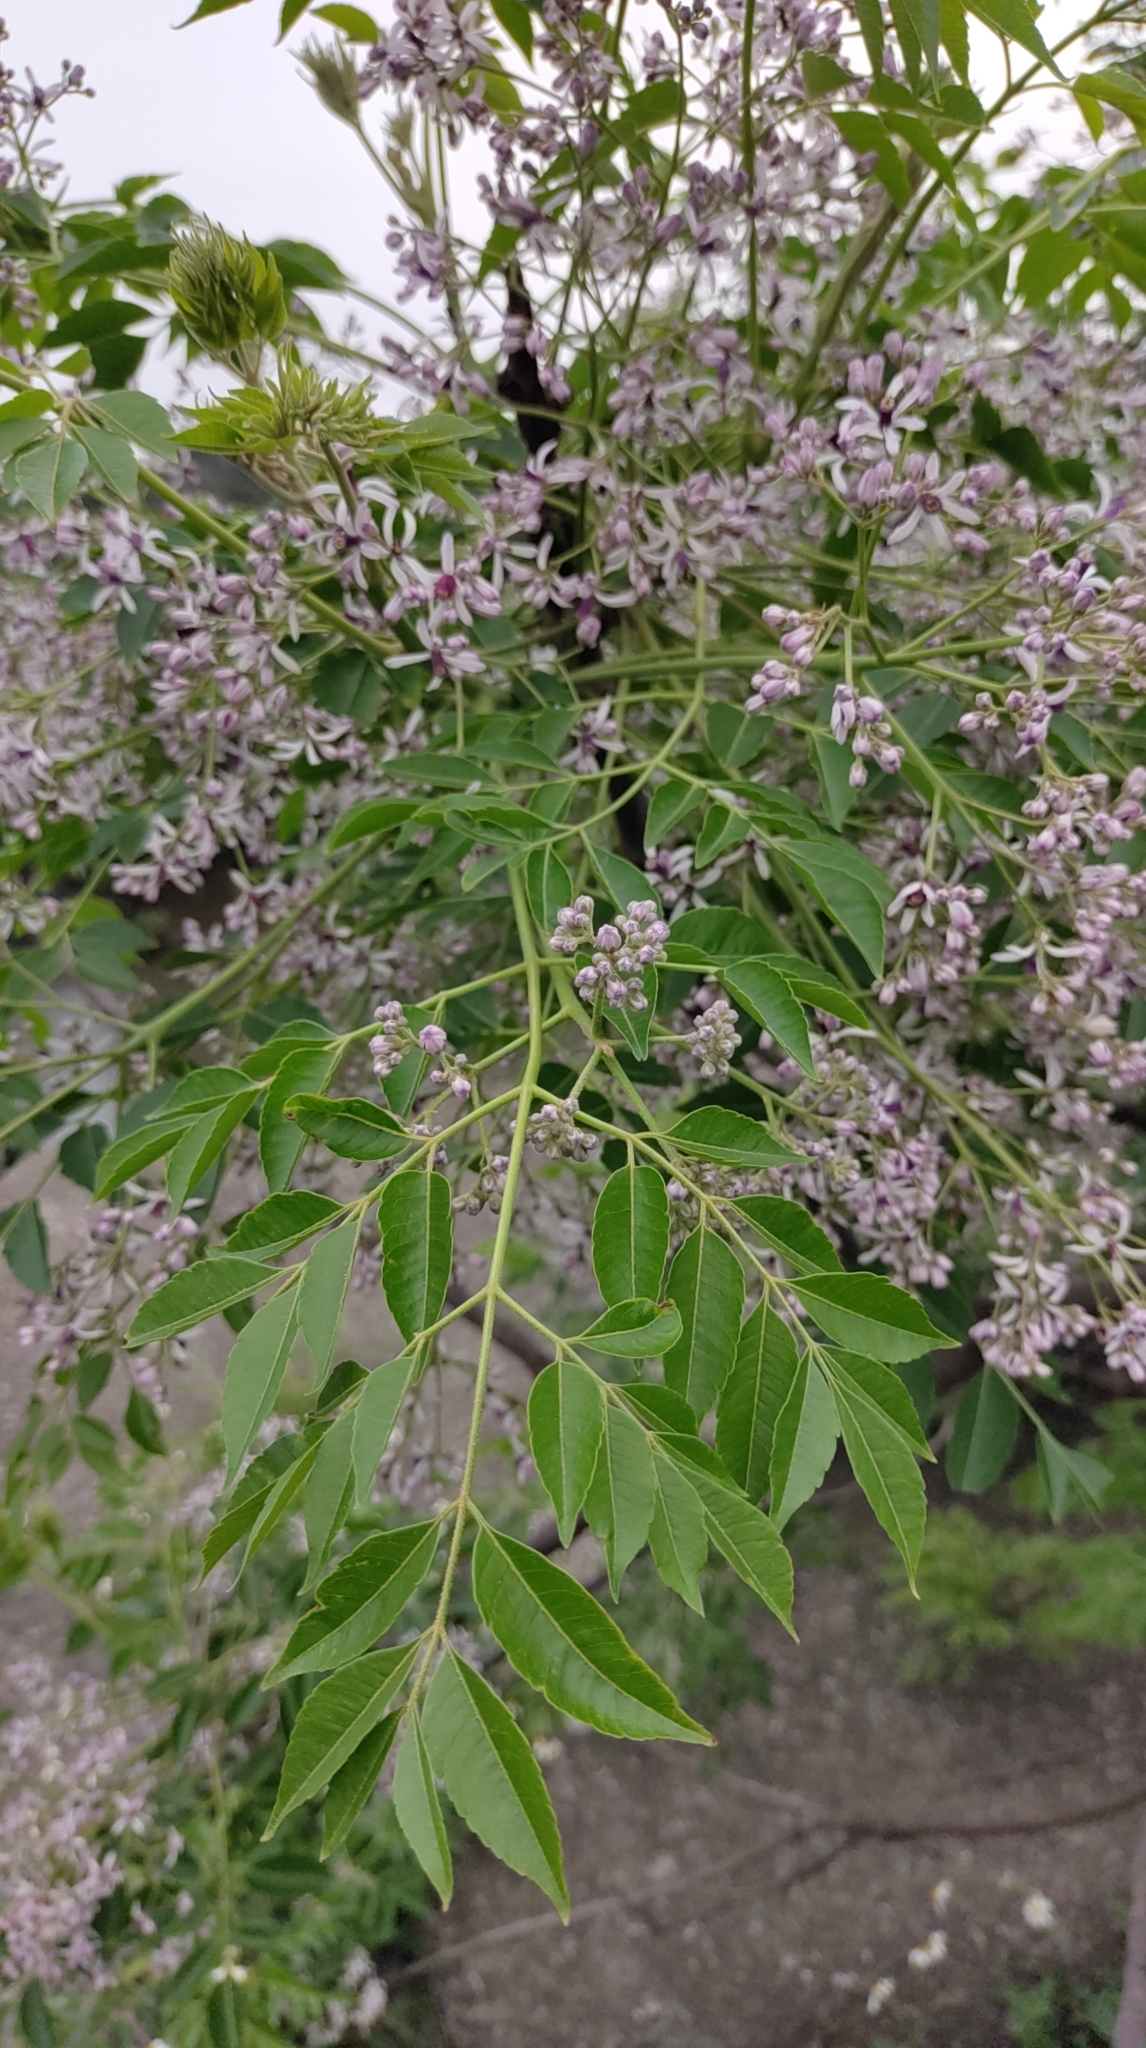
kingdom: Plantae
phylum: Tracheophyta
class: Magnoliopsida
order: Sapindales
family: Meliaceae
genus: Melia
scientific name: Melia azedarach
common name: Chinaberrytree
